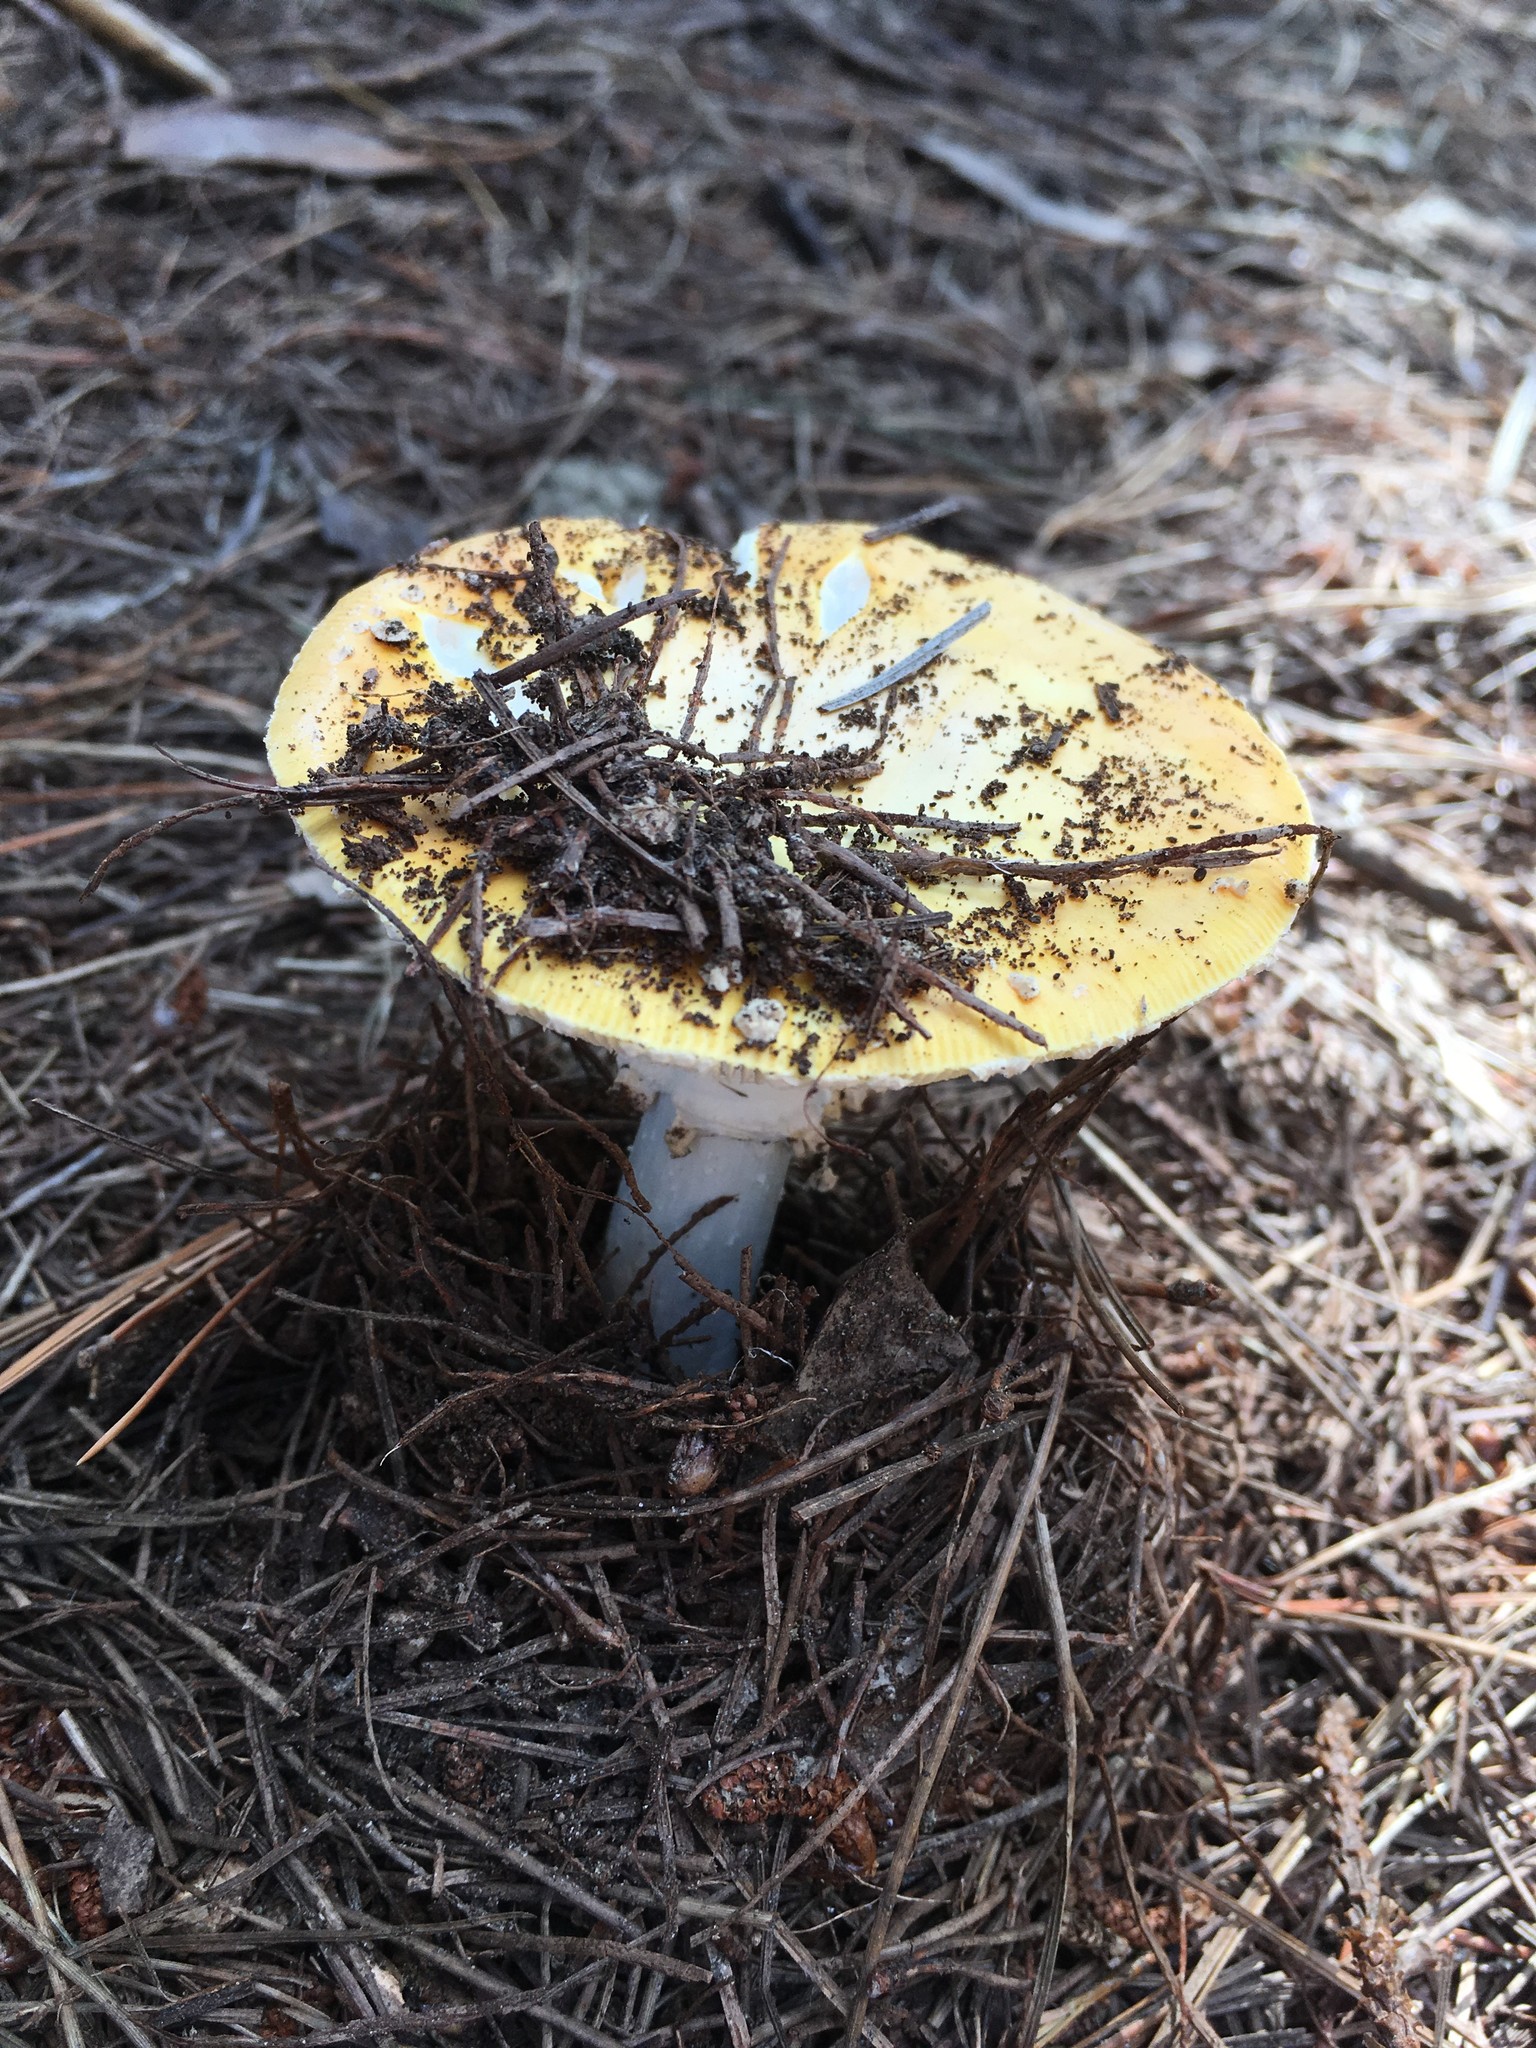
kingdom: Fungi
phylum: Basidiomycota
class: Agaricomycetes
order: Agaricales
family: Amanitaceae
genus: Amanita
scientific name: Amanita muscaria
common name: Fly agaric
